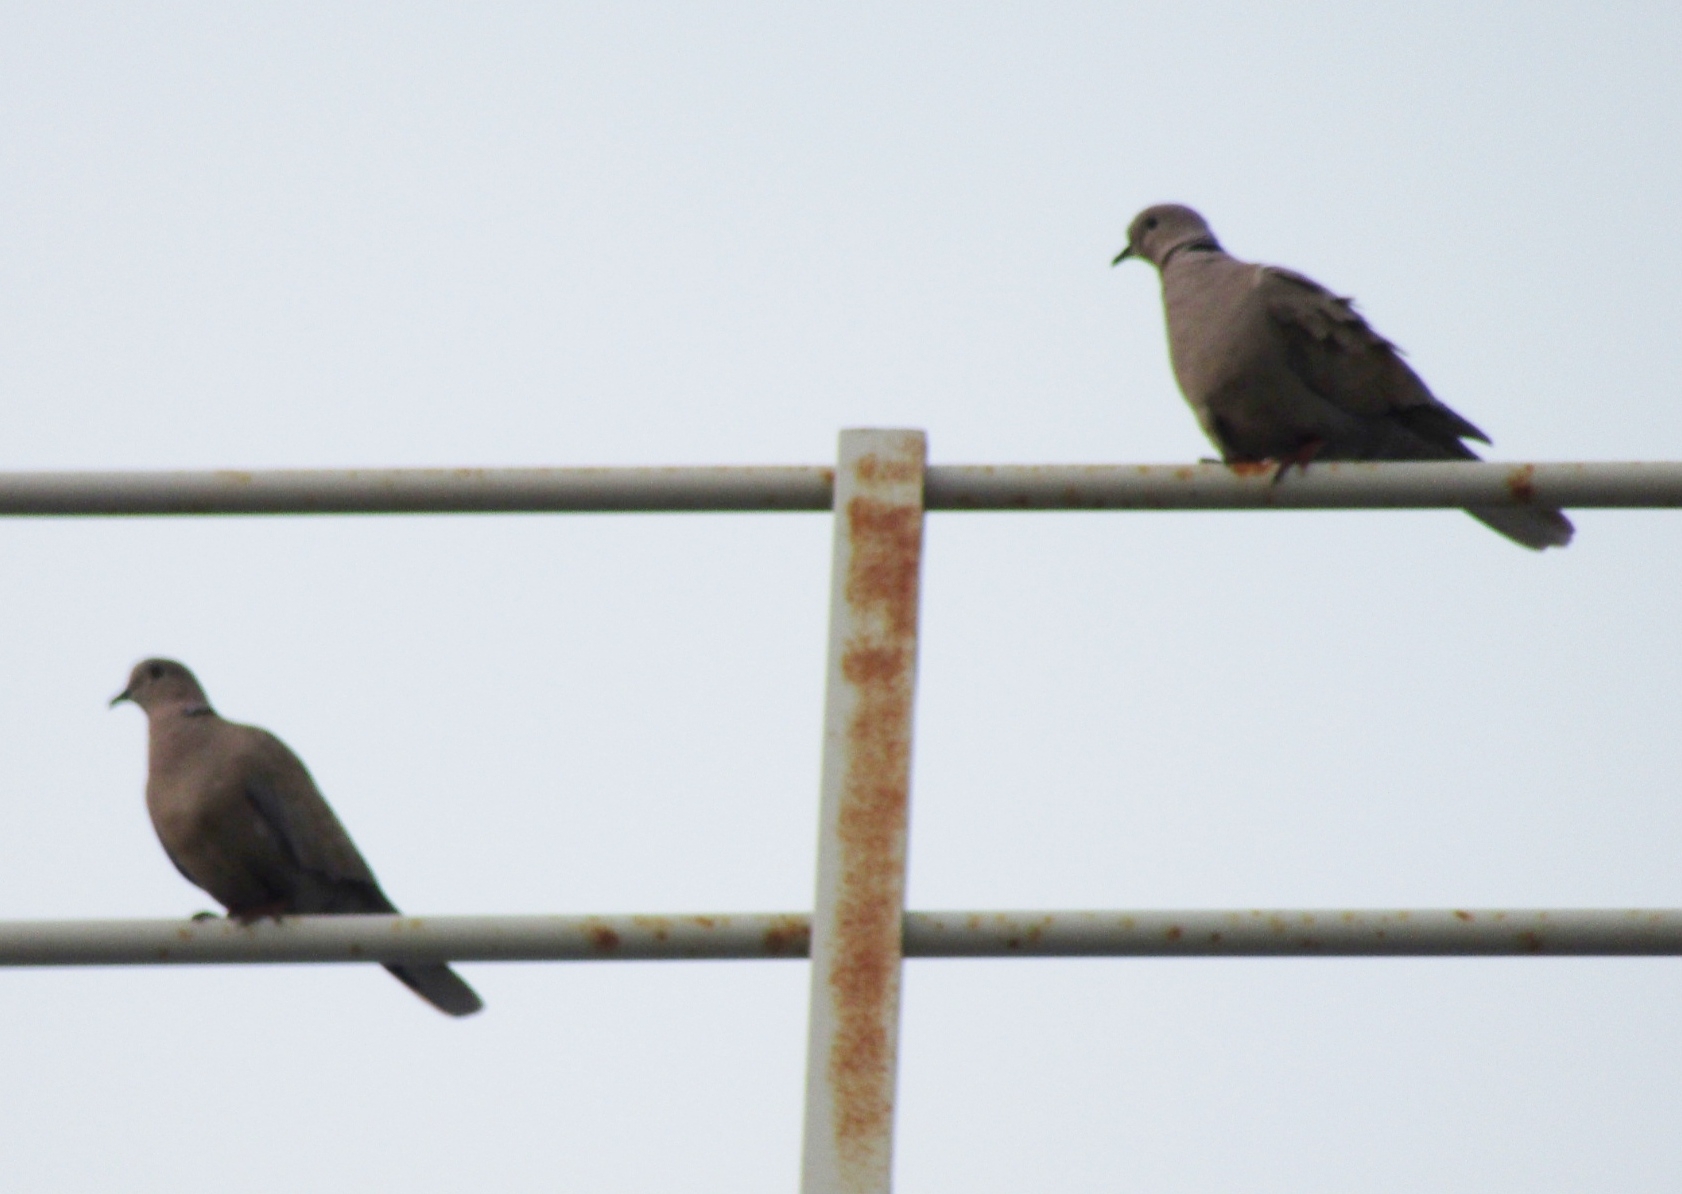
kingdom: Animalia
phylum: Chordata
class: Aves
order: Columbiformes
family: Columbidae
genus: Streptopelia
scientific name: Streptopelia decaocto
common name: Eurasian collared dove
